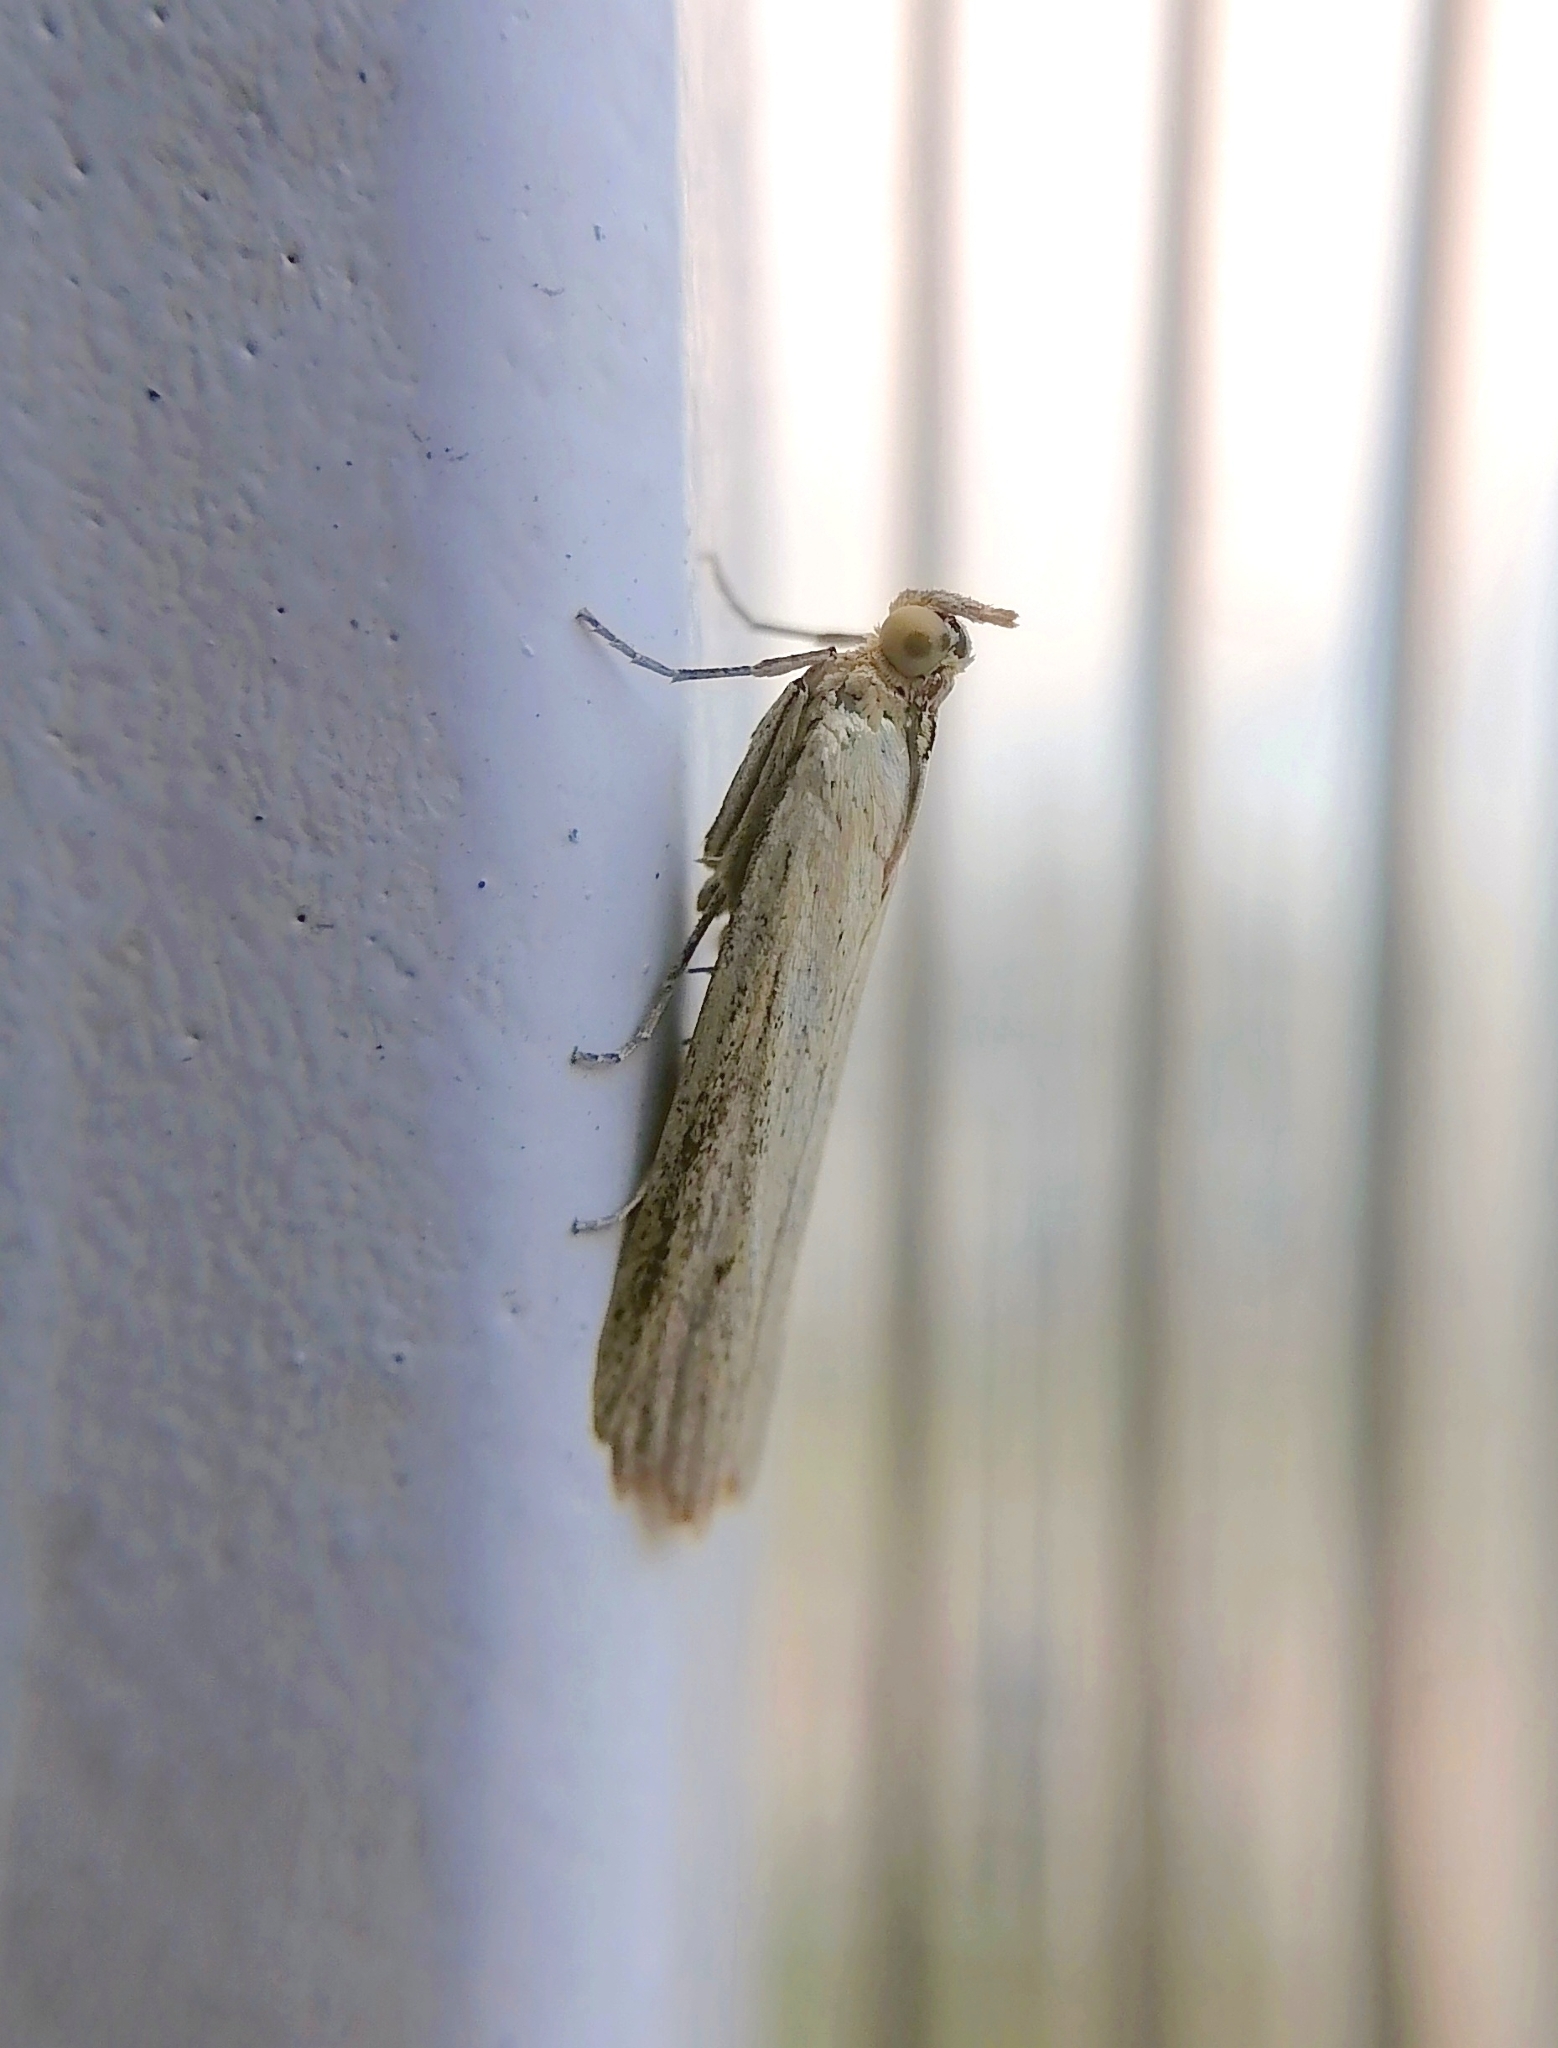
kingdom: Animalia
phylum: Arthropoda
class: Insecta
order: Lepidoptera
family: Pyralidae
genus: Selagia
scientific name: Selagia argyrella
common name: Silvery knot-horn
